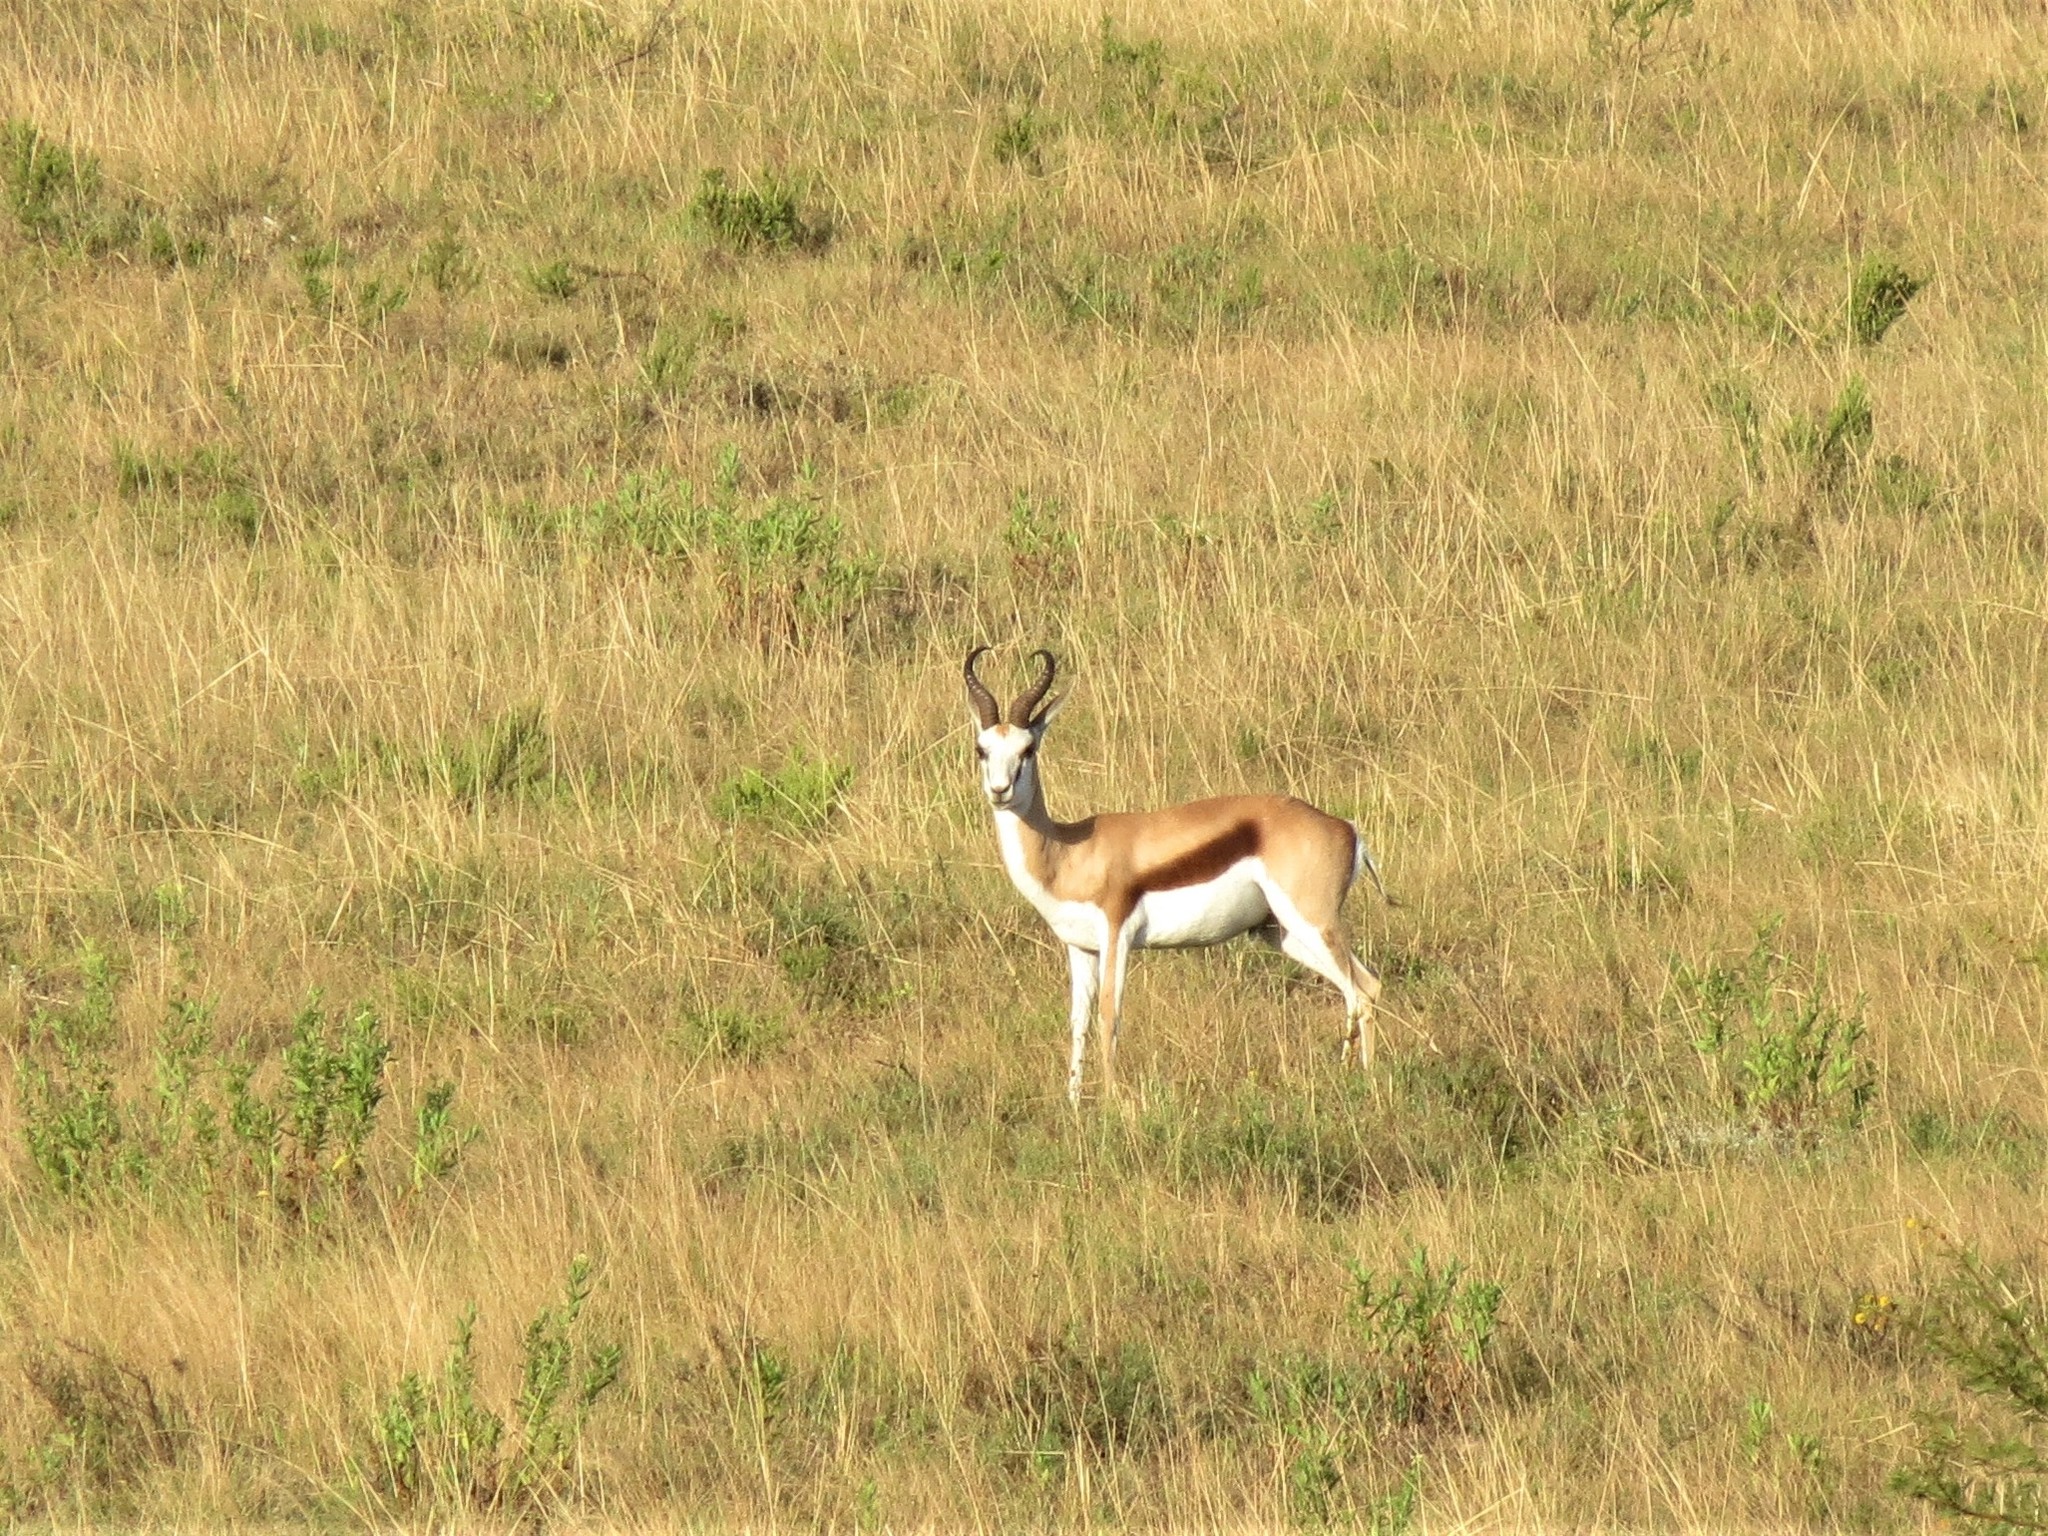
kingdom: Animalia
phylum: Chordata
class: Mammalia
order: Artiodactyla
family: Bovidae
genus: Antidorcas
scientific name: Antidorcas marsupialis
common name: Springbok
